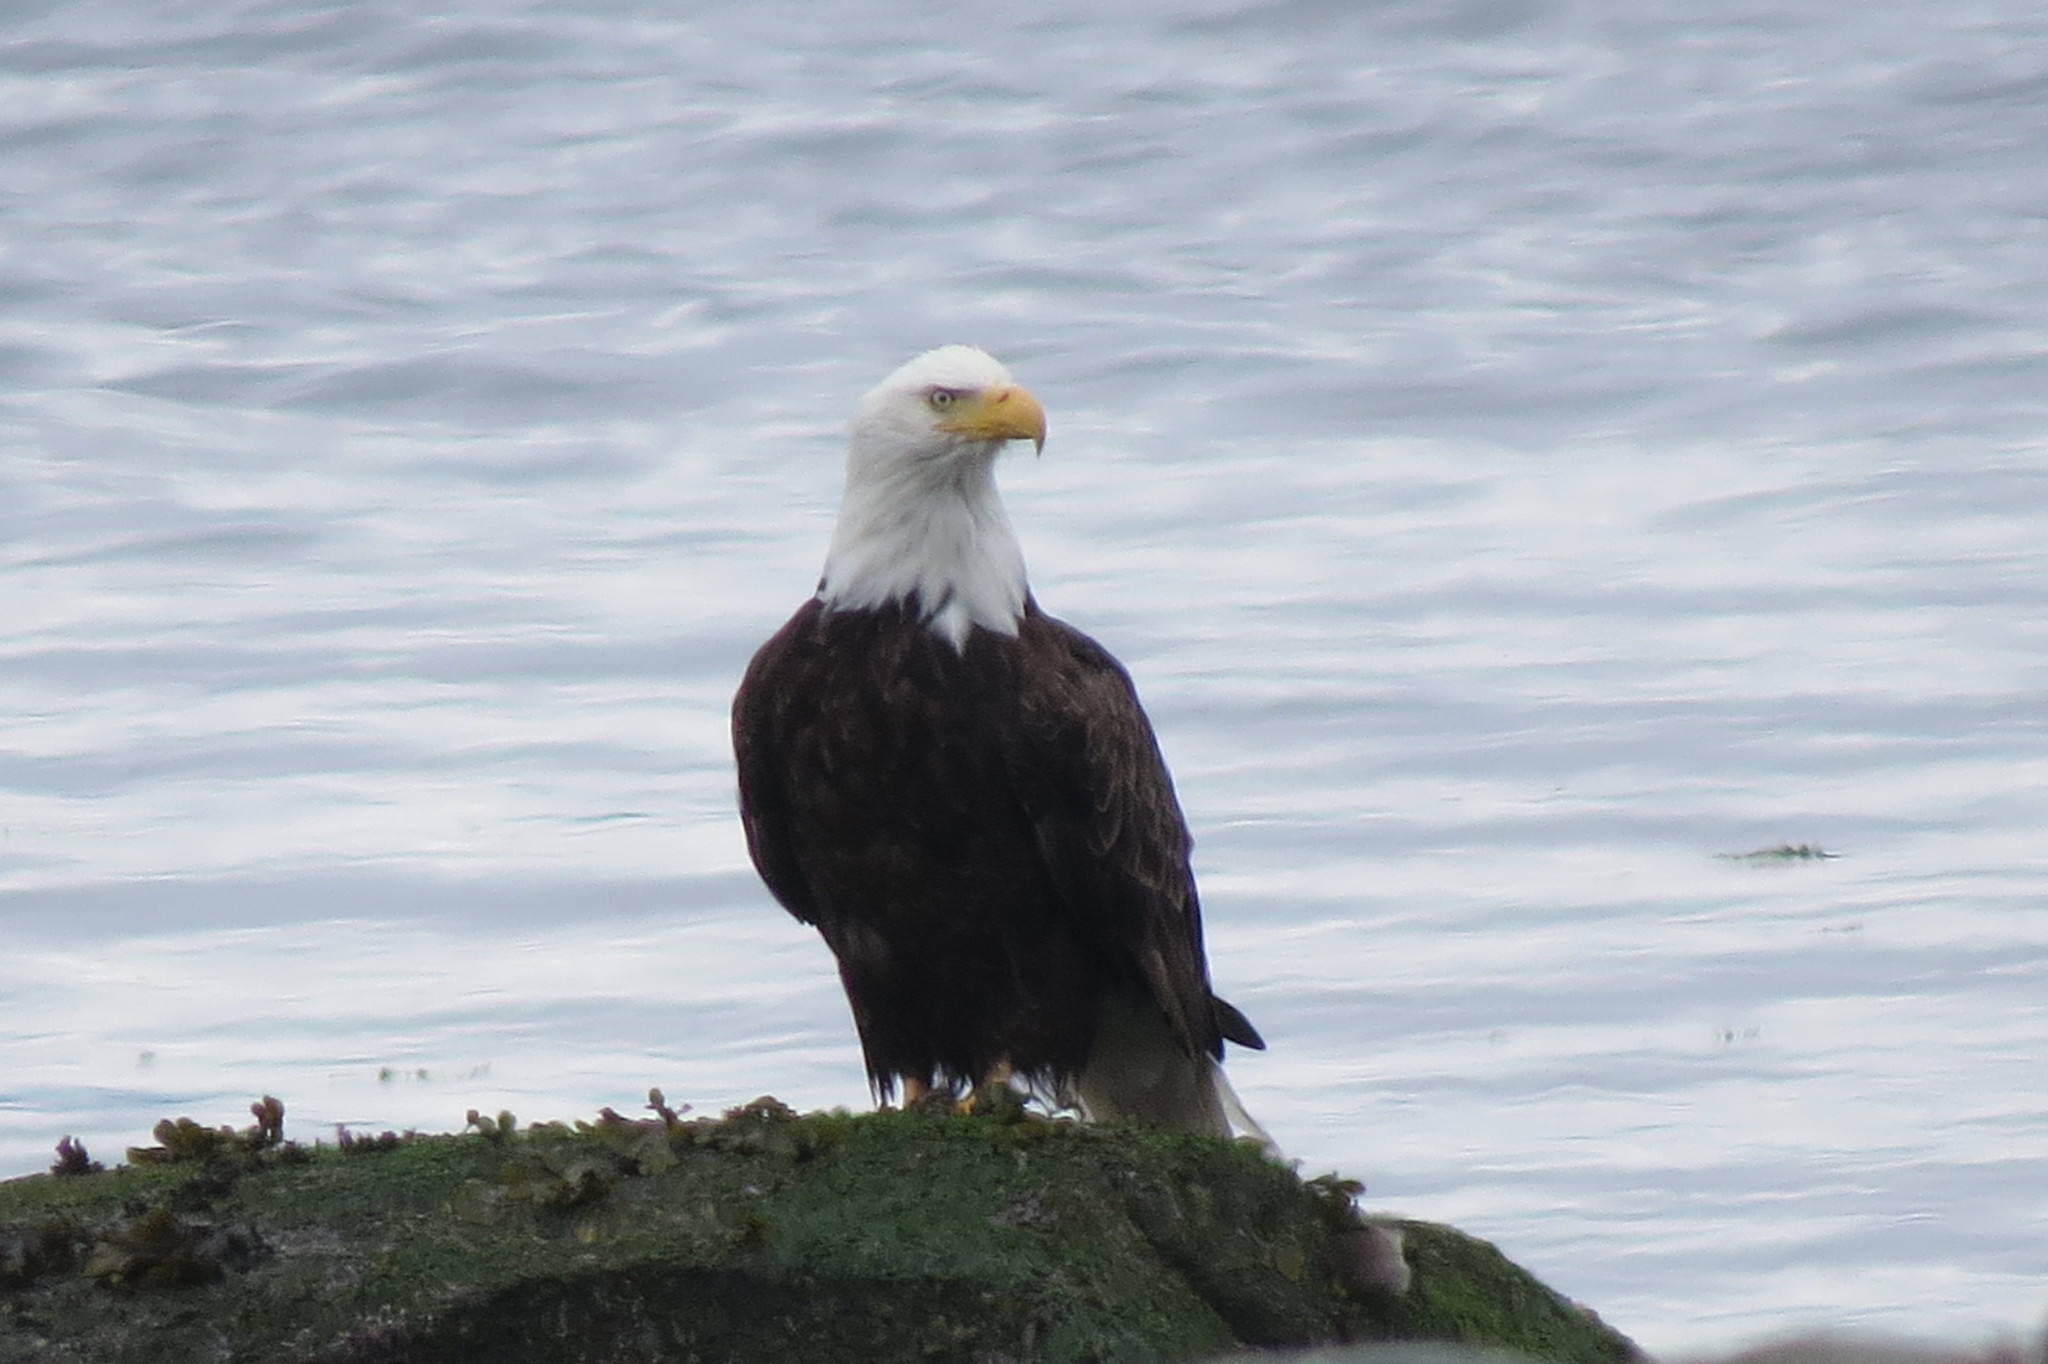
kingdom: Animalia
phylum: Chordata
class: Aves
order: Accipitriformes
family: Accipitridae
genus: Haliaeetus
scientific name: Haliaeetus leucocephalus
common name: Bald eagle
